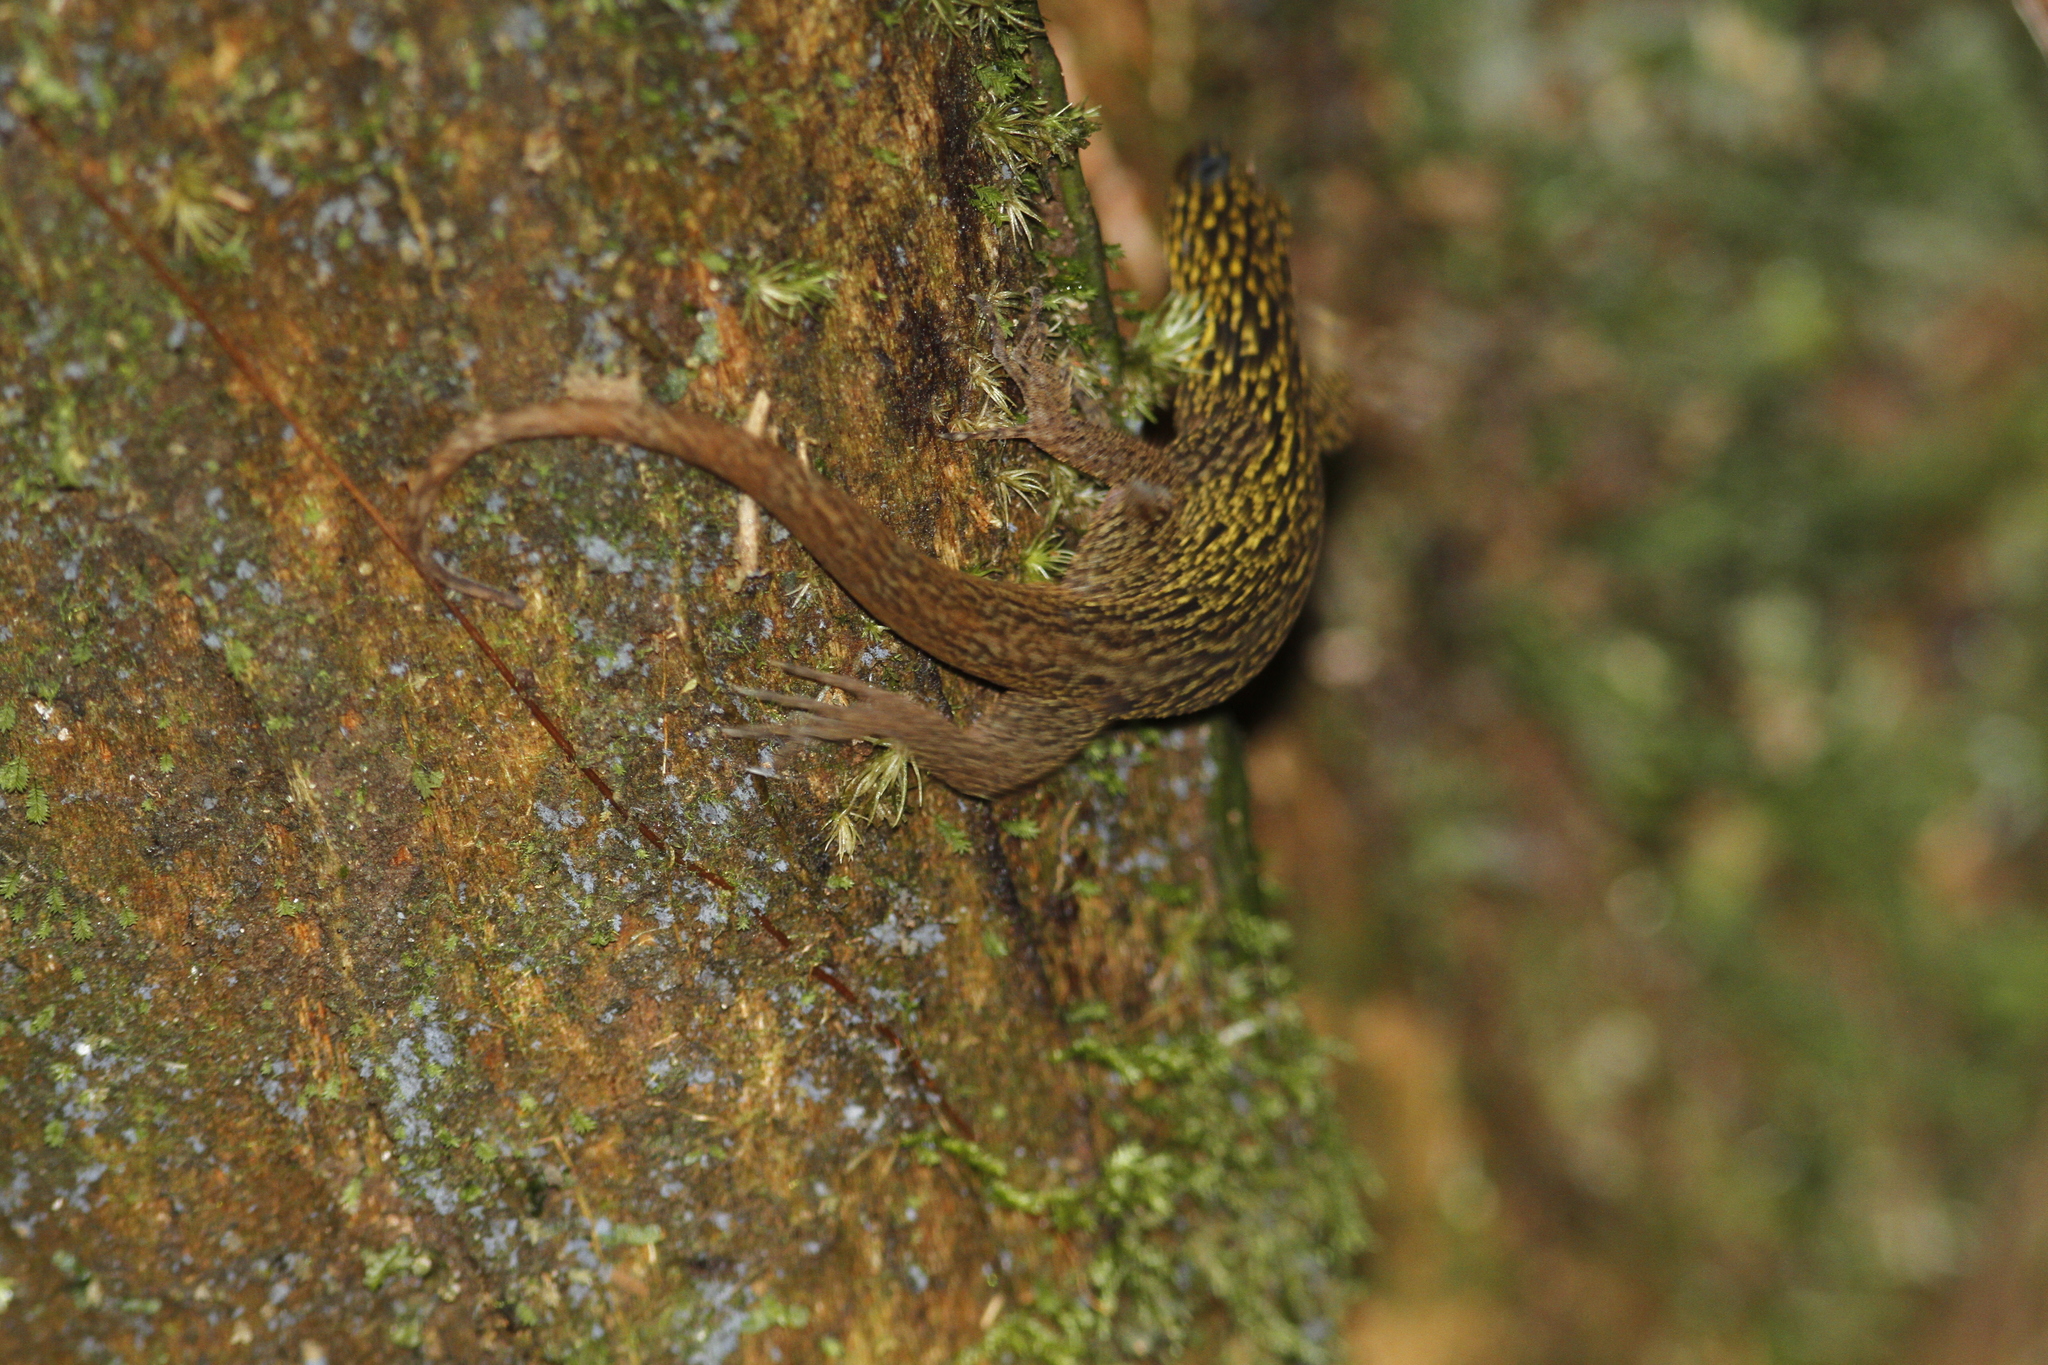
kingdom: Animalia
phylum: Chordata
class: Squamata
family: Sphaerodactylidae
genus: Gonatodes
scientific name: Gonatodes annularis
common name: Annulated gecko
